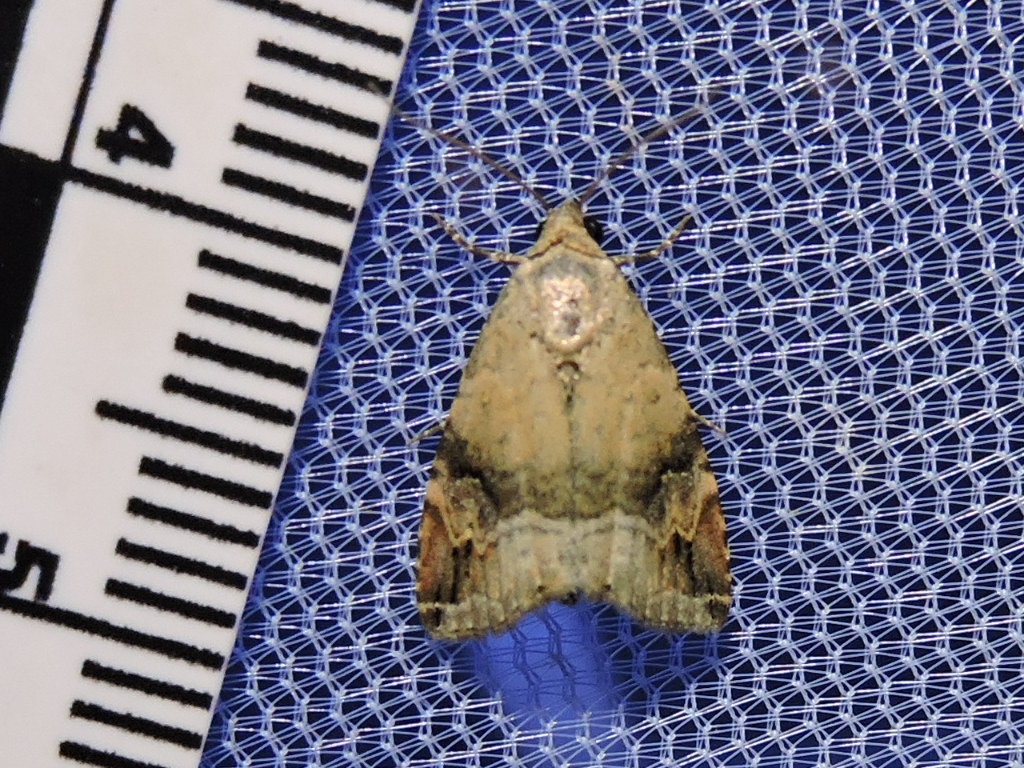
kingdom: Animalia
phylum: Arthropoda
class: Insecta
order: Lepidoptera
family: Noctuidae
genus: Ozarba
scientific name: Ozarba aeria
